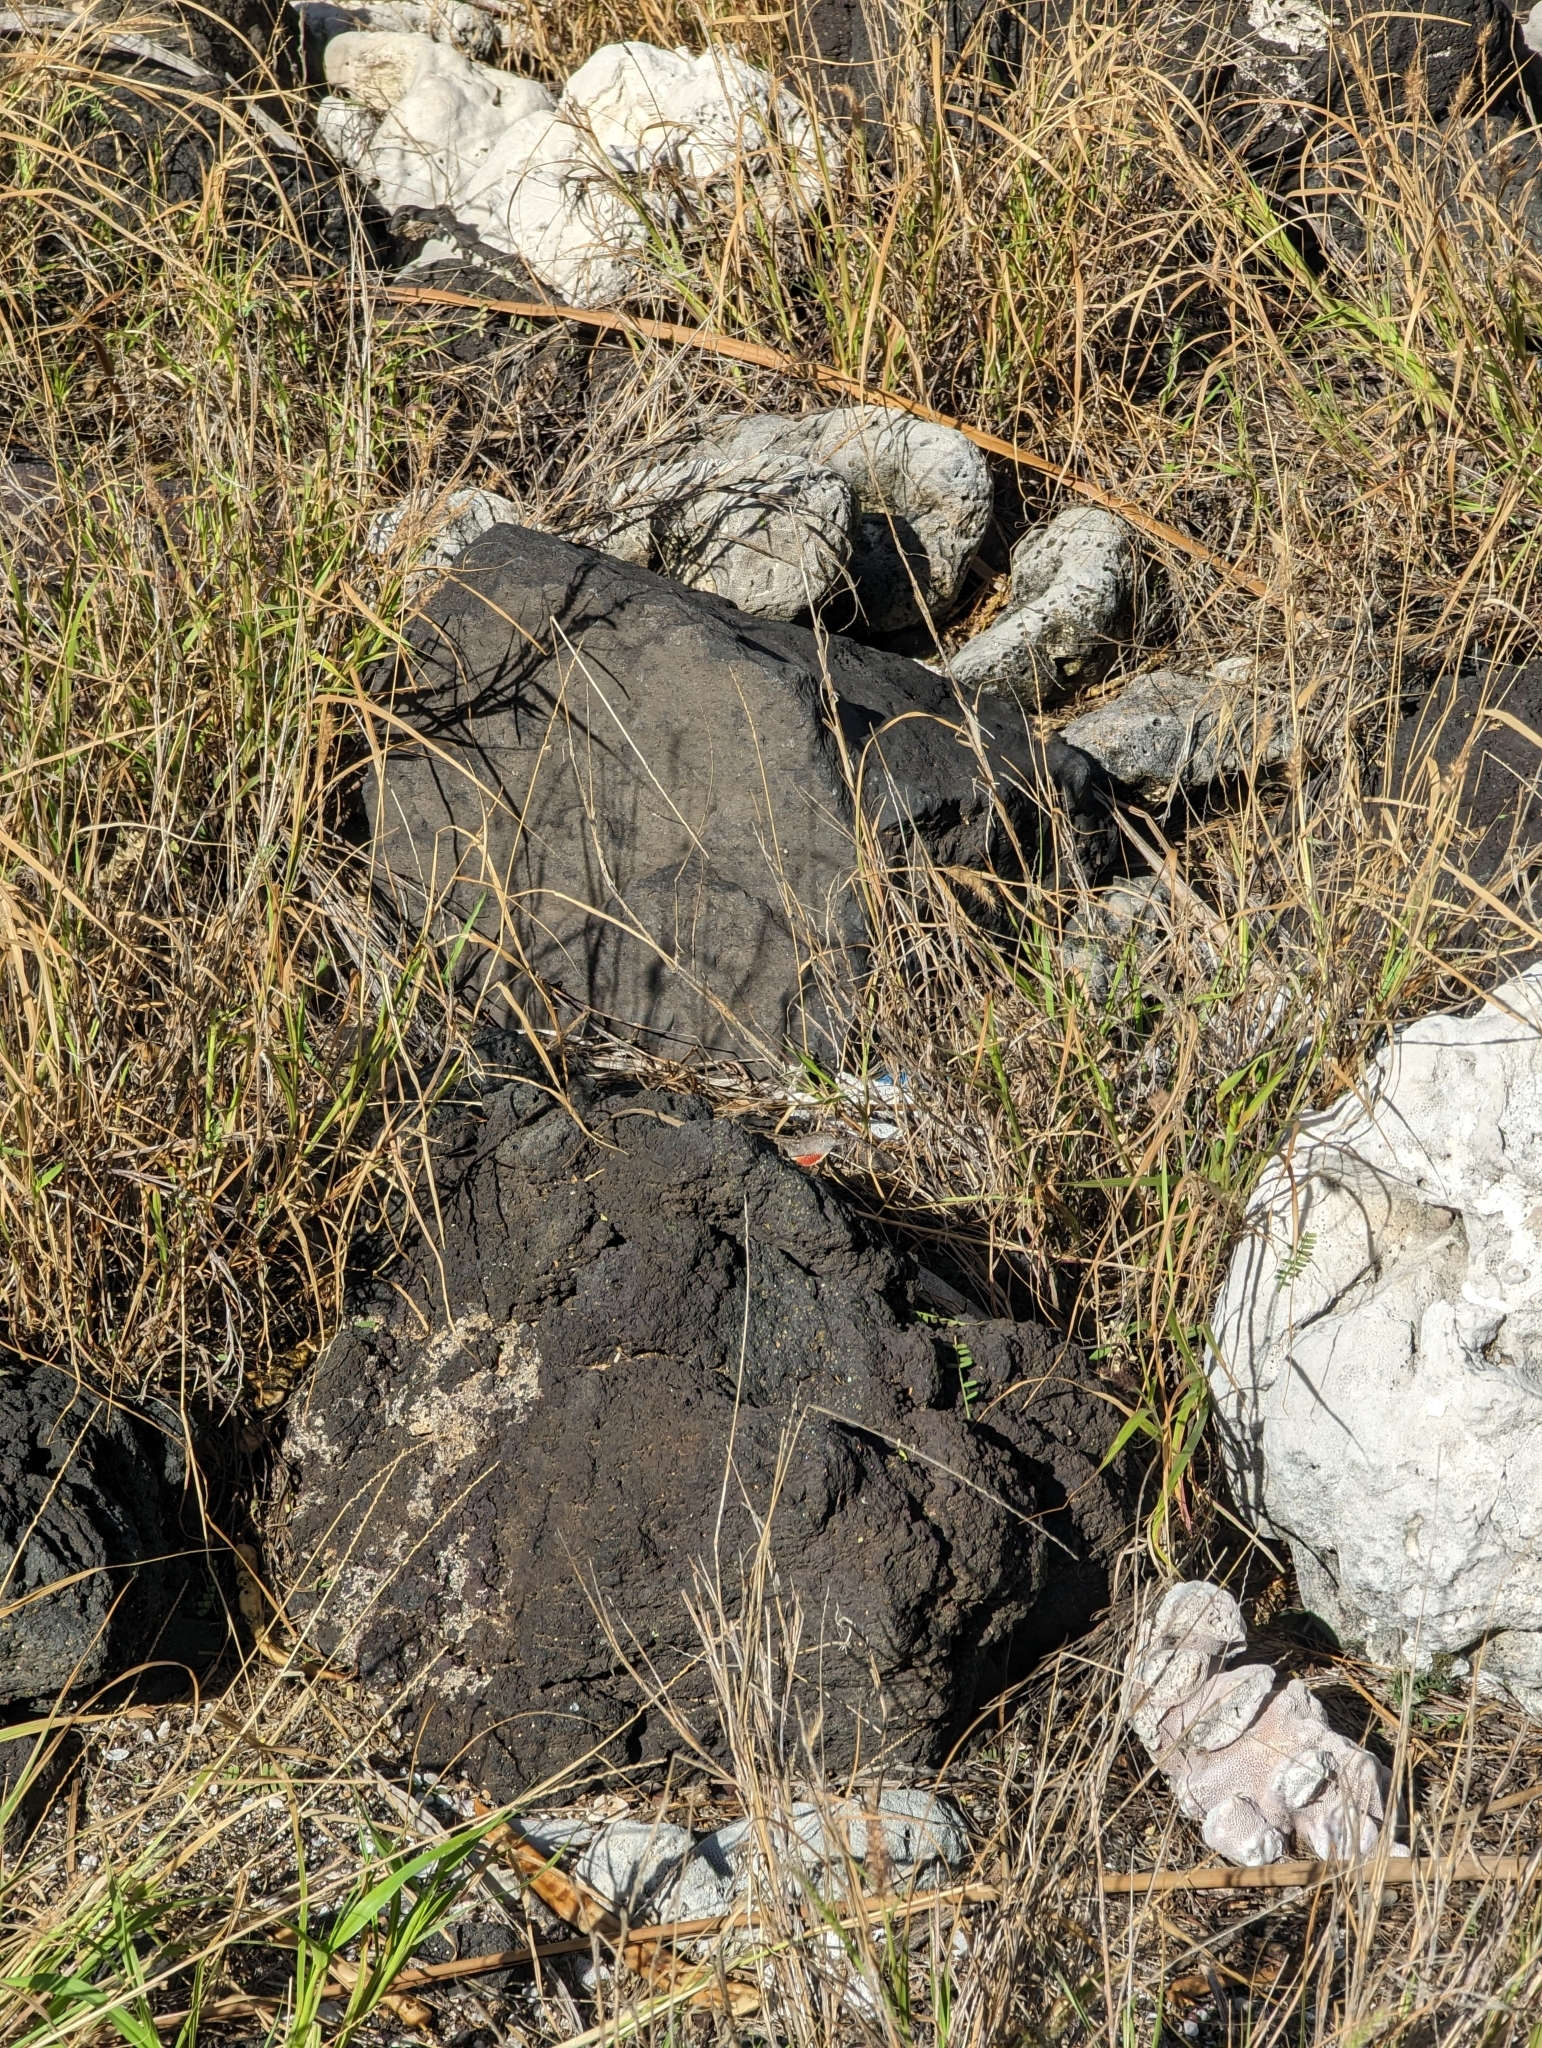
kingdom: Animalia
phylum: Chordata
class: Squamata
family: Dactyloidae
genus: Anolis
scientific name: Anolis sagrei
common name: Brown anole
